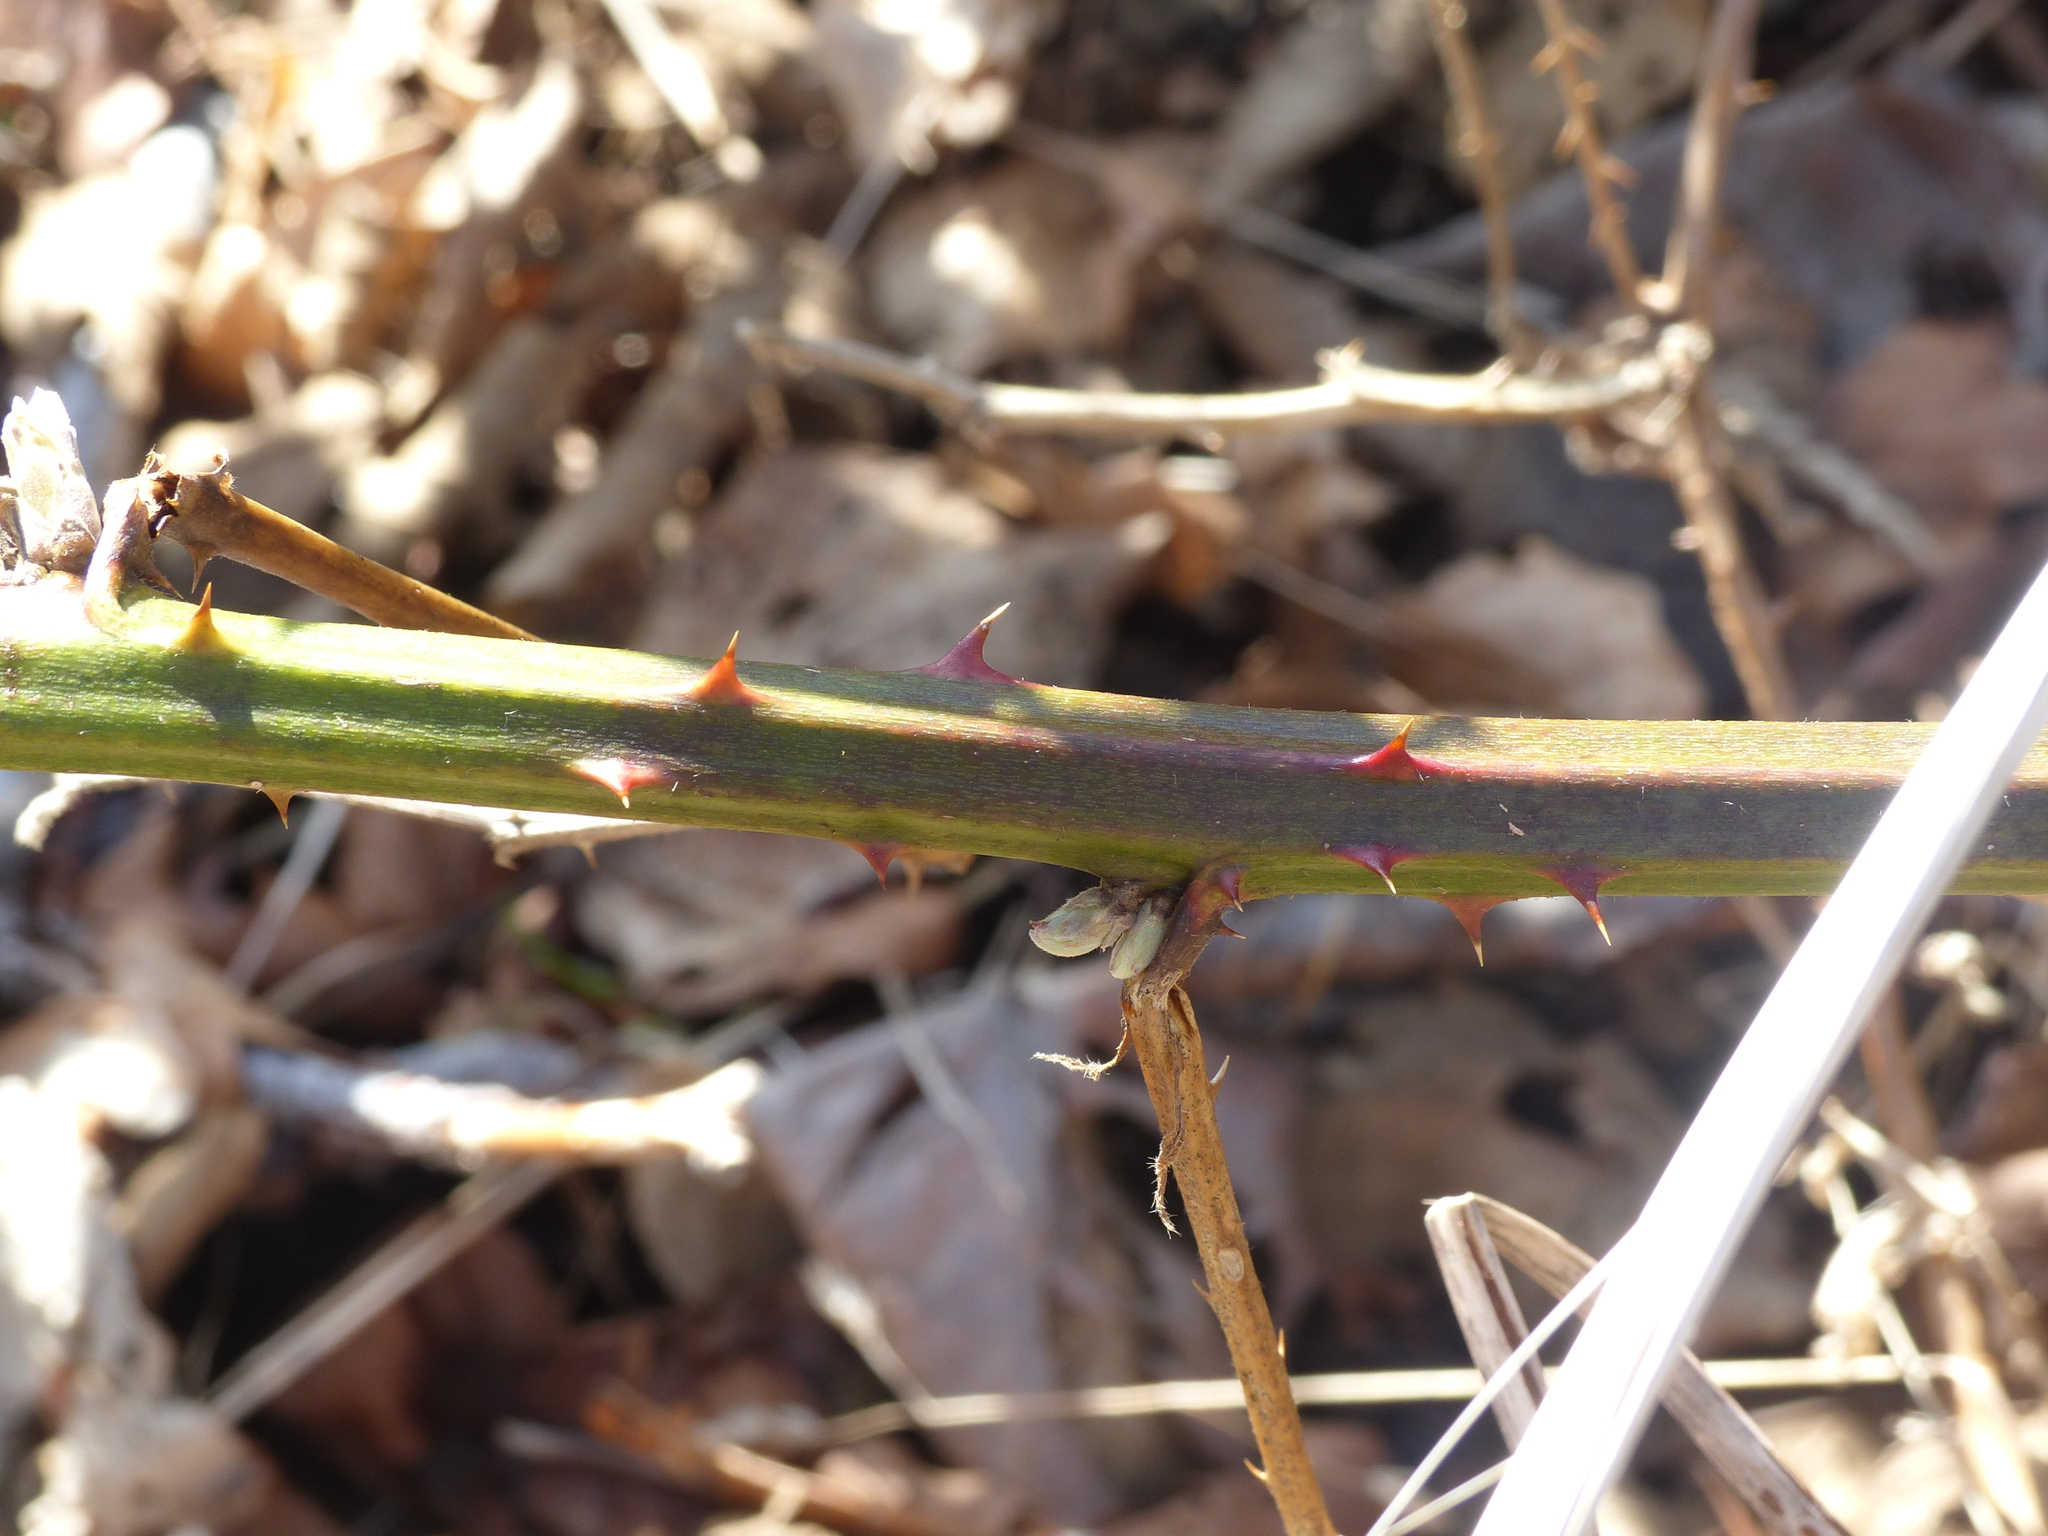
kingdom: Plantae
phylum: Tracheophyta
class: Magnoliopsida
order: Rosales
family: Rosaceae
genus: Rubus
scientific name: Rubus bifrons
